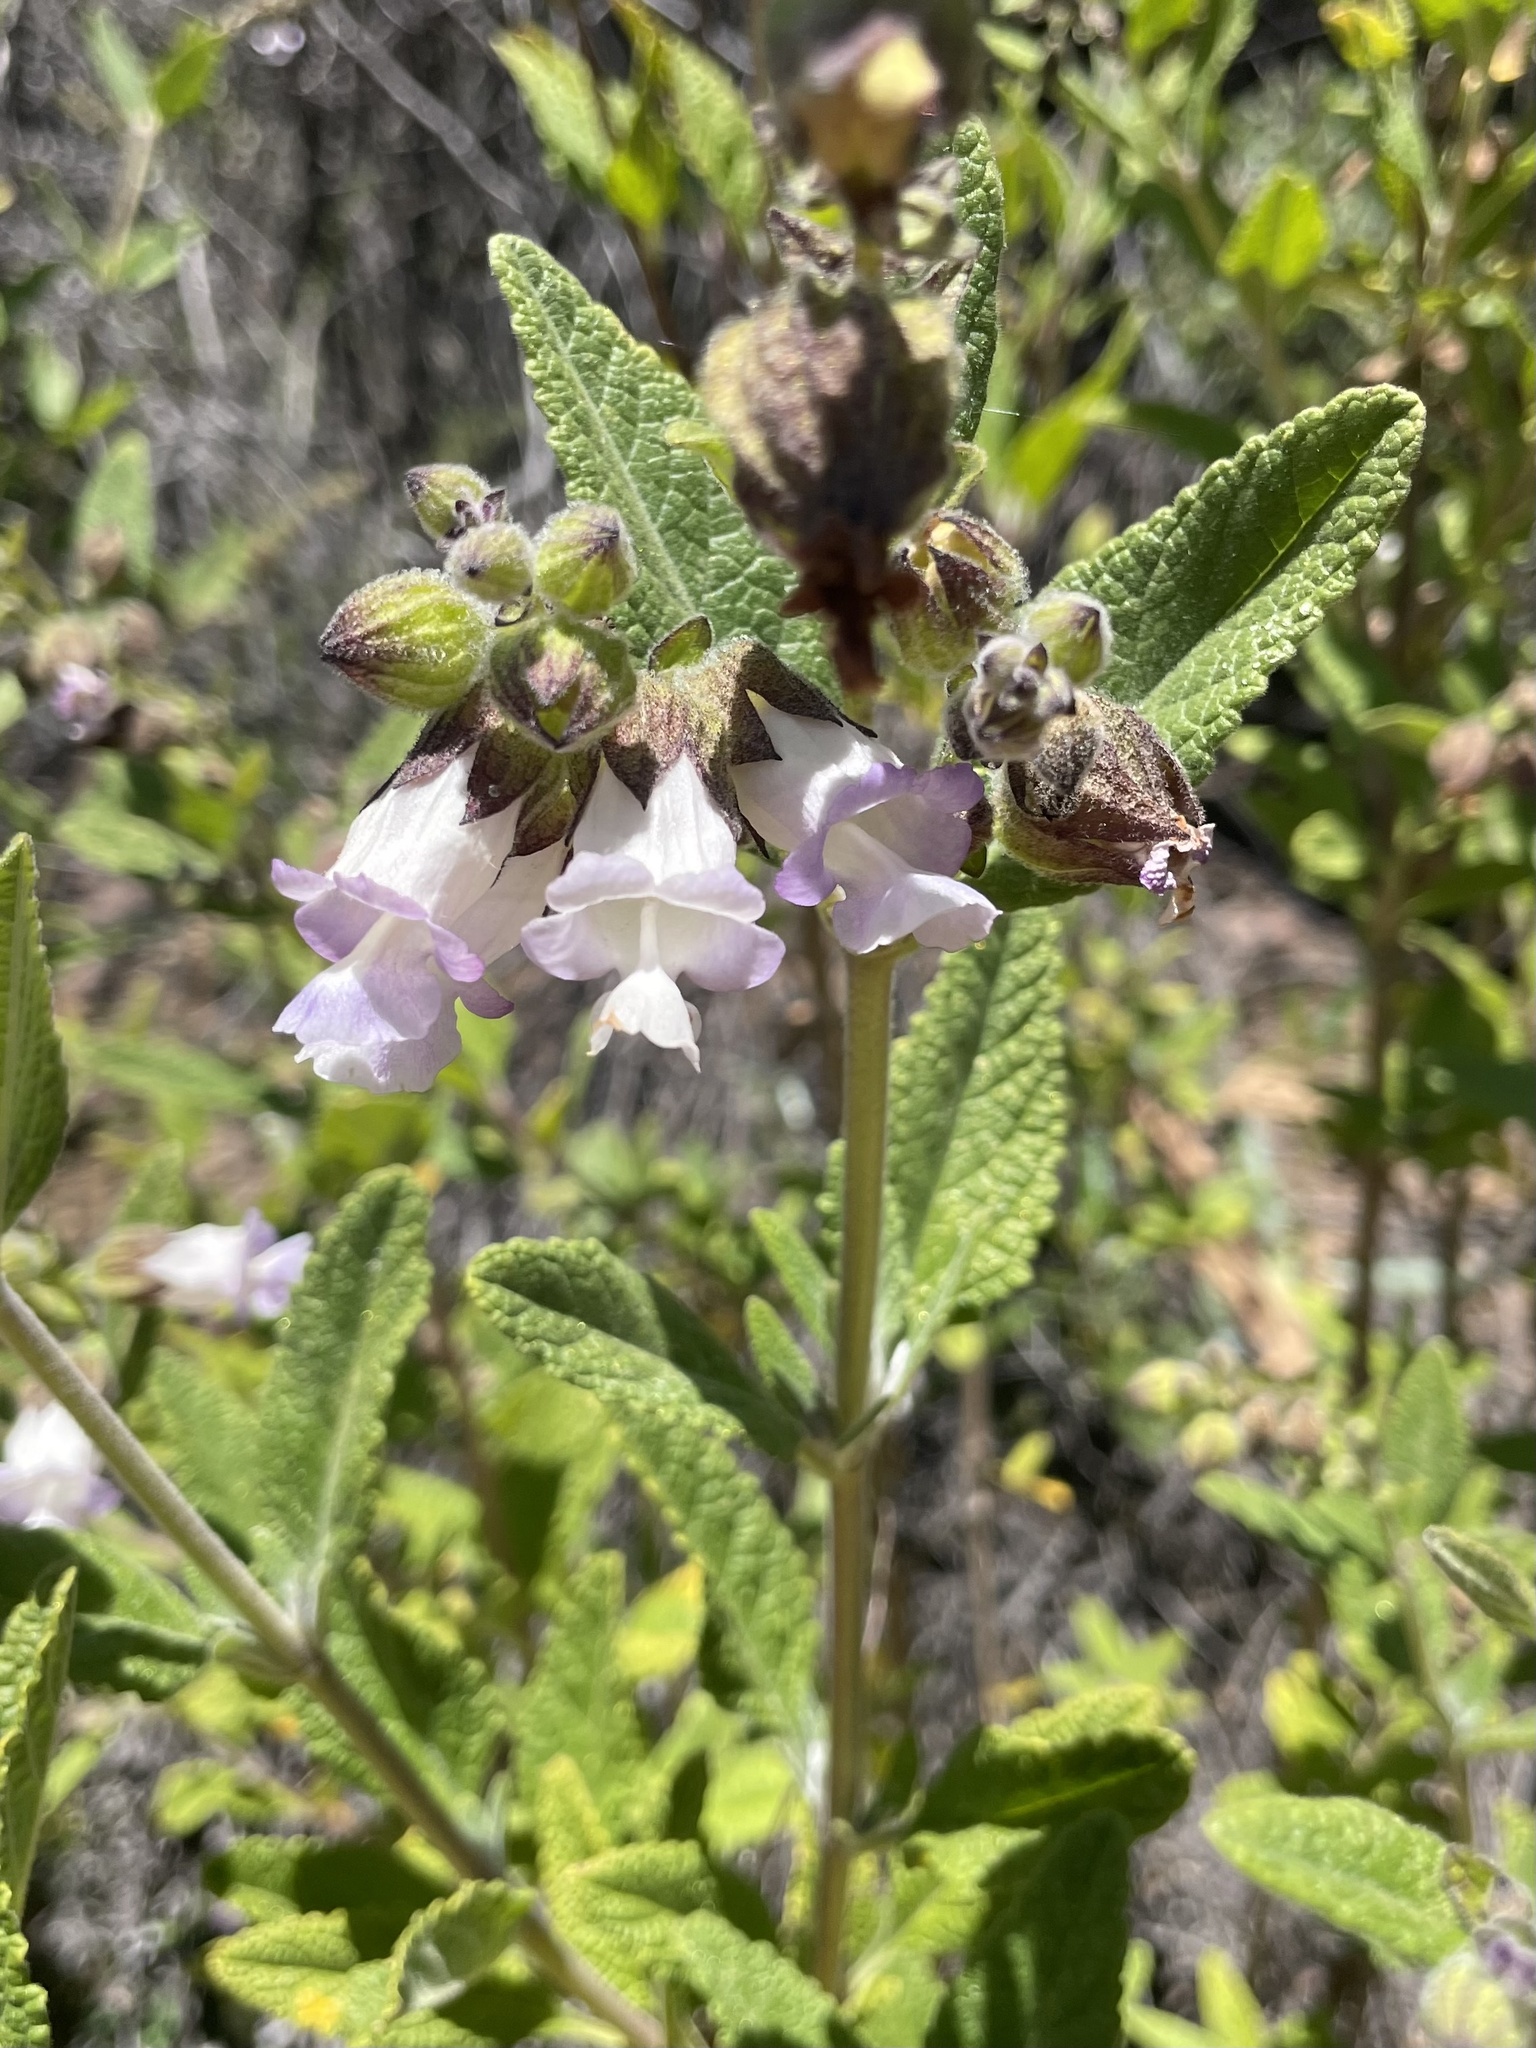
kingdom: Plantae
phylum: Tracheophyta
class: Magnoliopsida
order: Lamiales
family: Lamiaceae
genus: Lepechinia
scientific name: Lepechinia calycina
